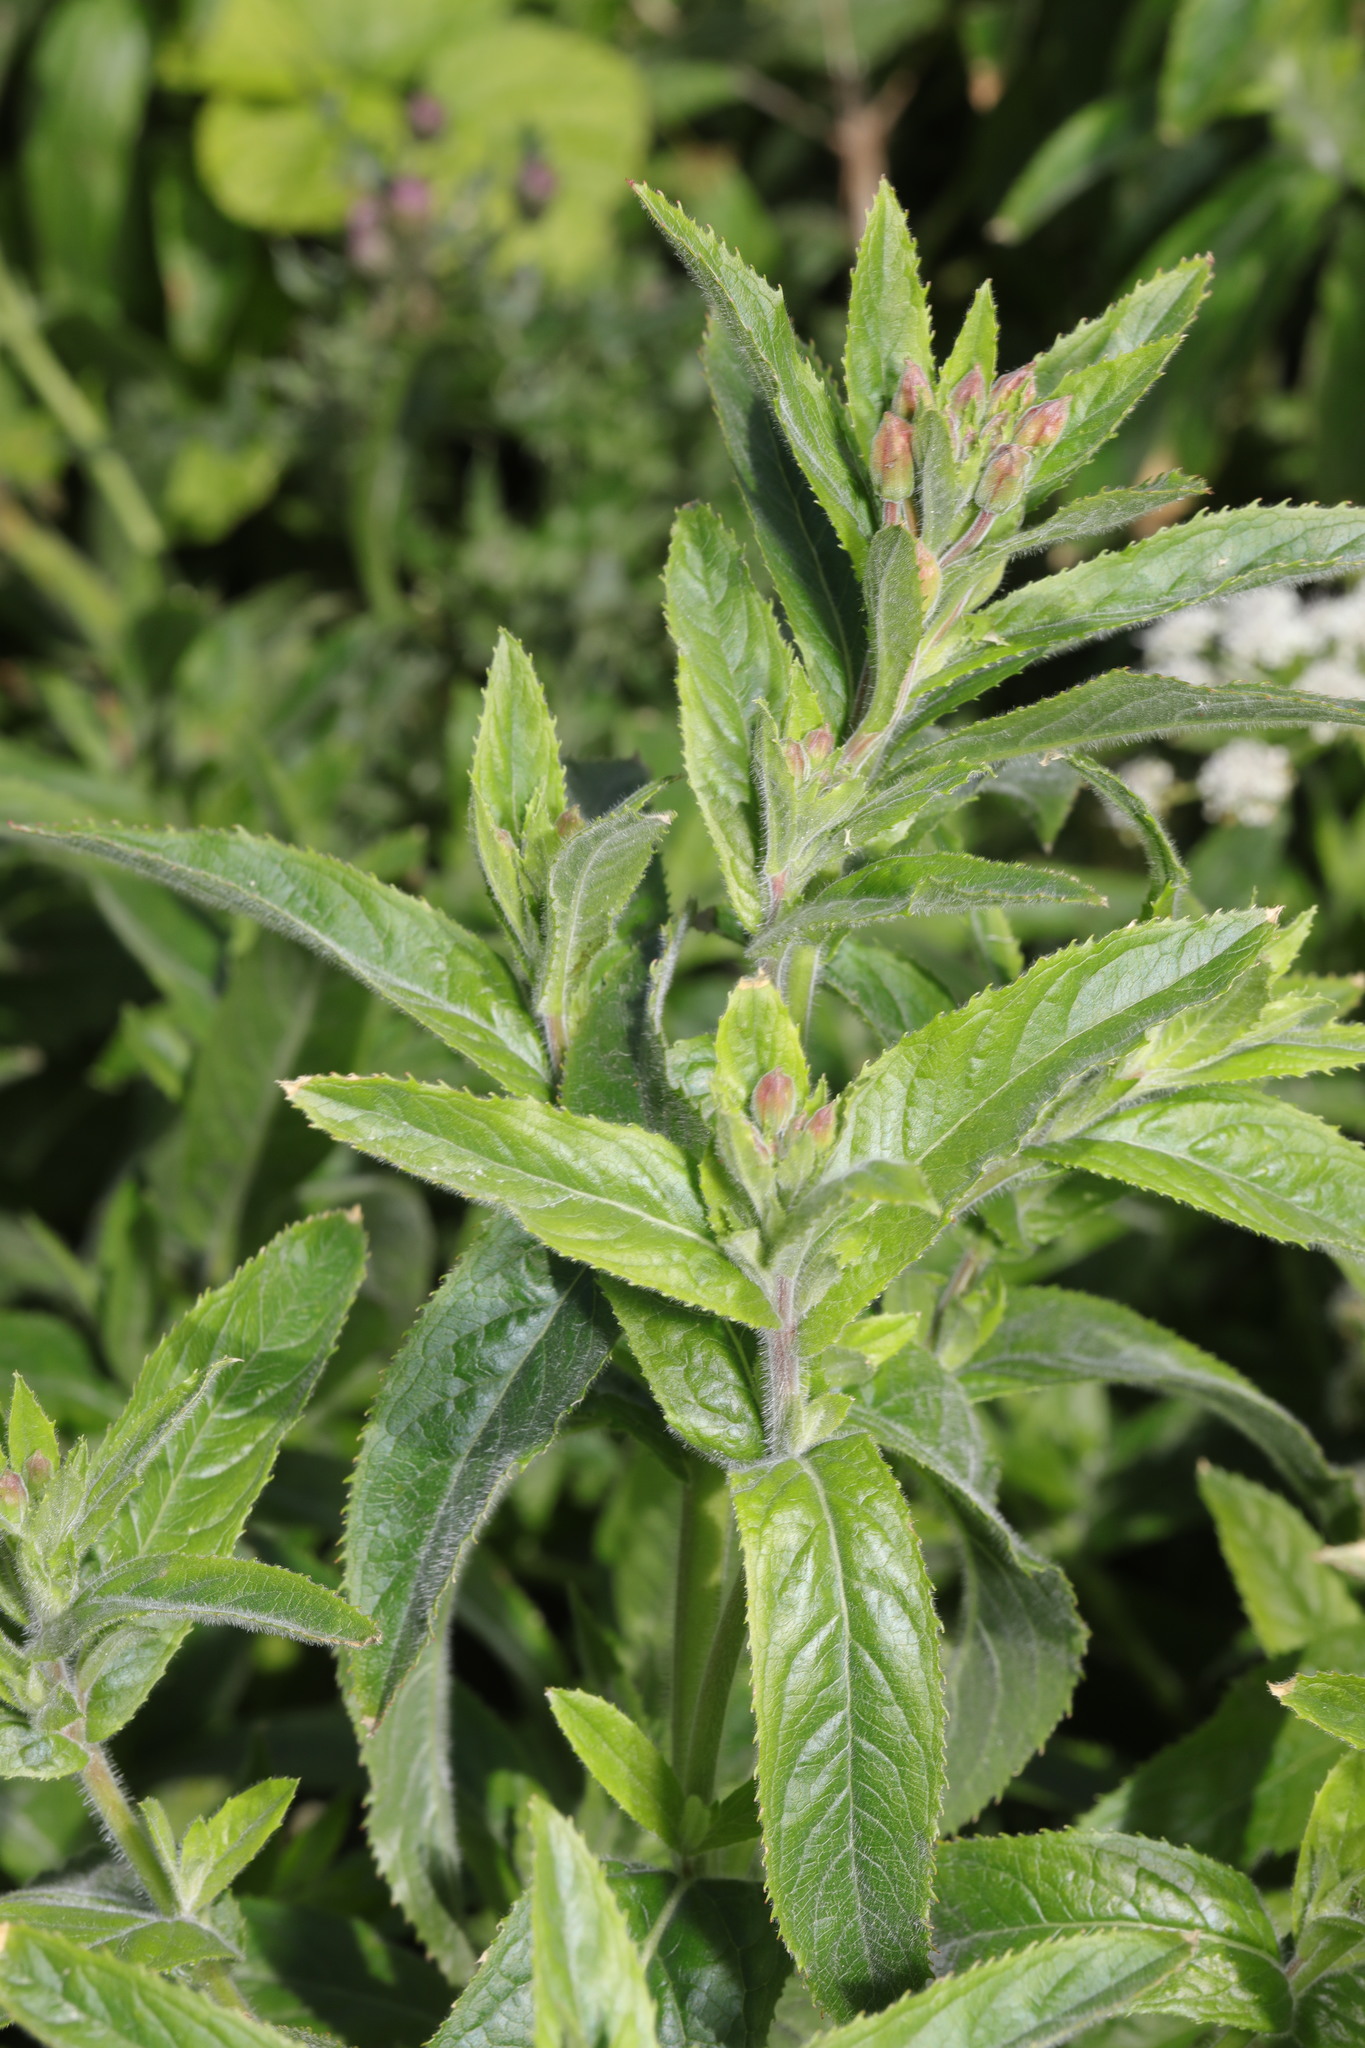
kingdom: Plantae
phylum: Tracheophyta
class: Magnoliopsida
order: Myrtales
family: Onagraceae
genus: Epilobium
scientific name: Epilobium hirsutum
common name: Great willowherb
